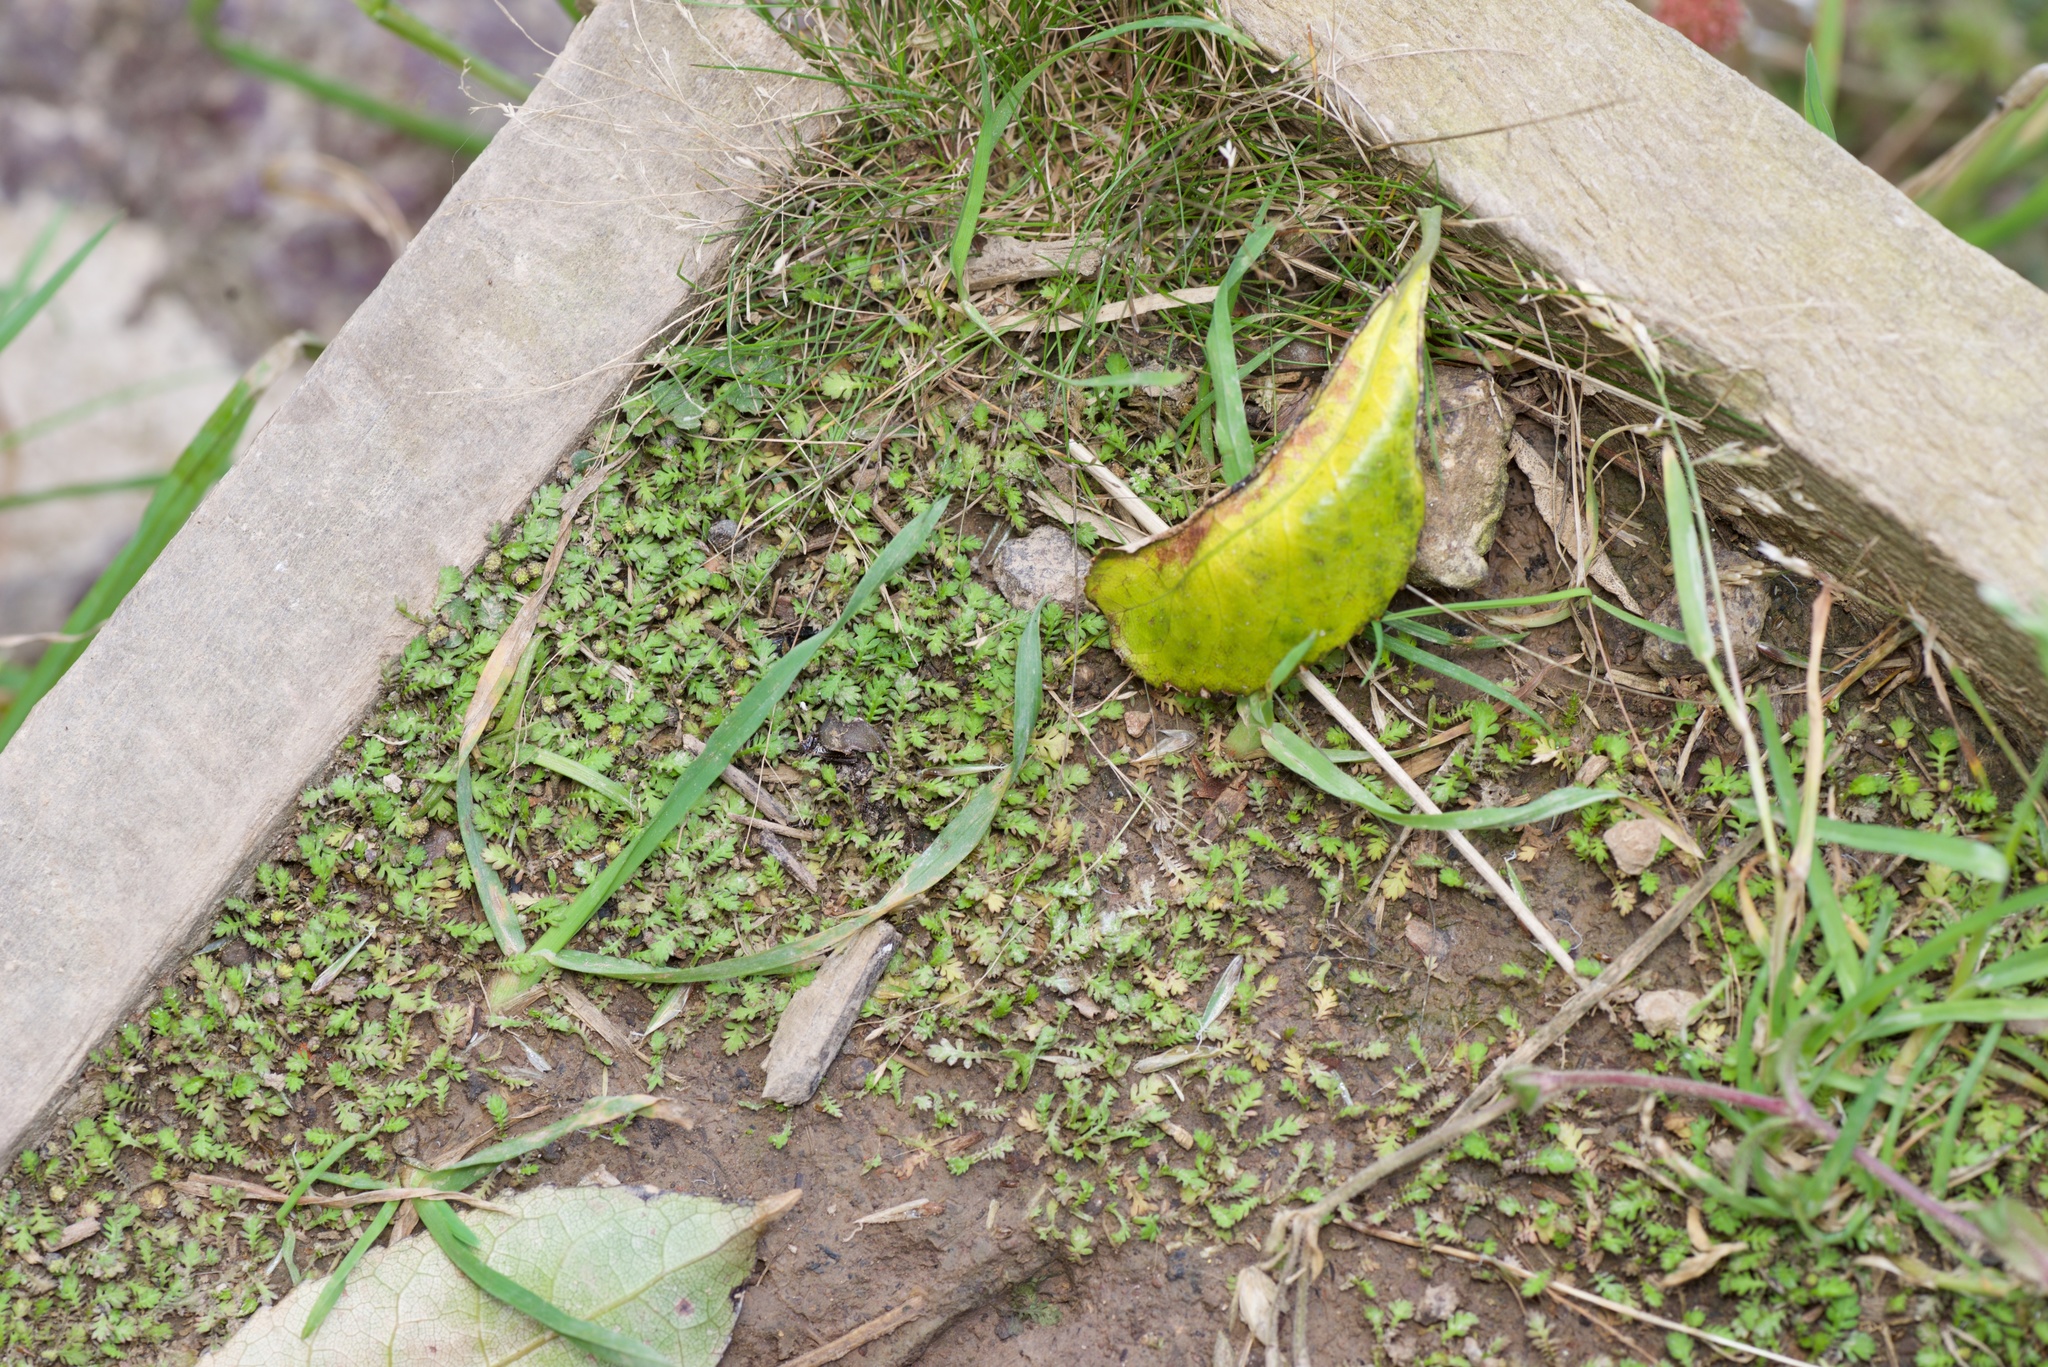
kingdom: Plantae
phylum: Tracheophyta
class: Magnoliopsida
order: Asterales
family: Asteraceae
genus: Leptinella
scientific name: Leptinella nana
